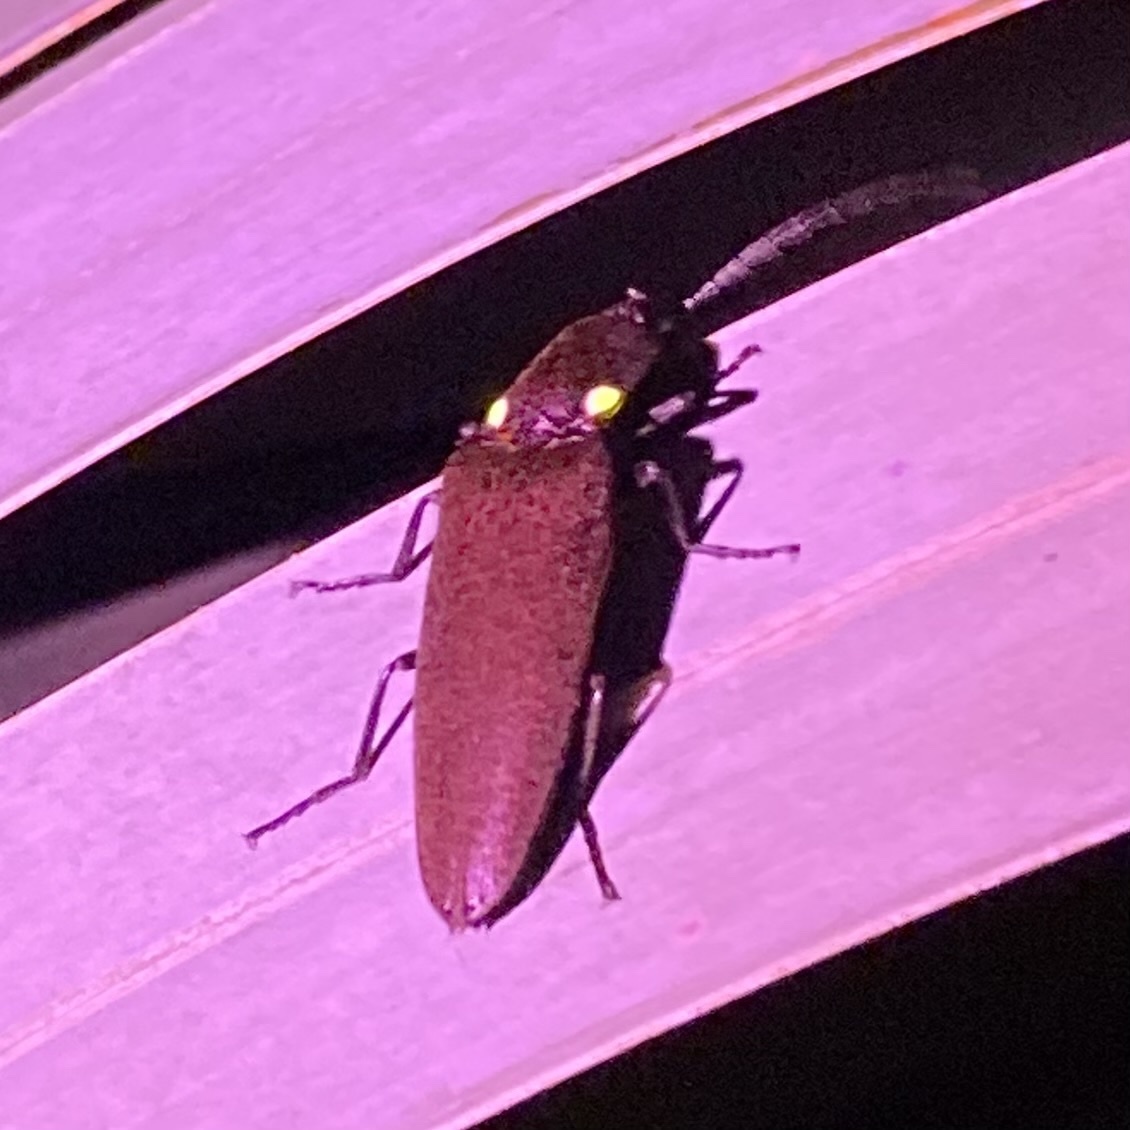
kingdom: Animalia
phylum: Arthropoda
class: Insecta
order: Coleoptera
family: Elateridae
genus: Ignelater
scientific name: Ignelater havaniensis
